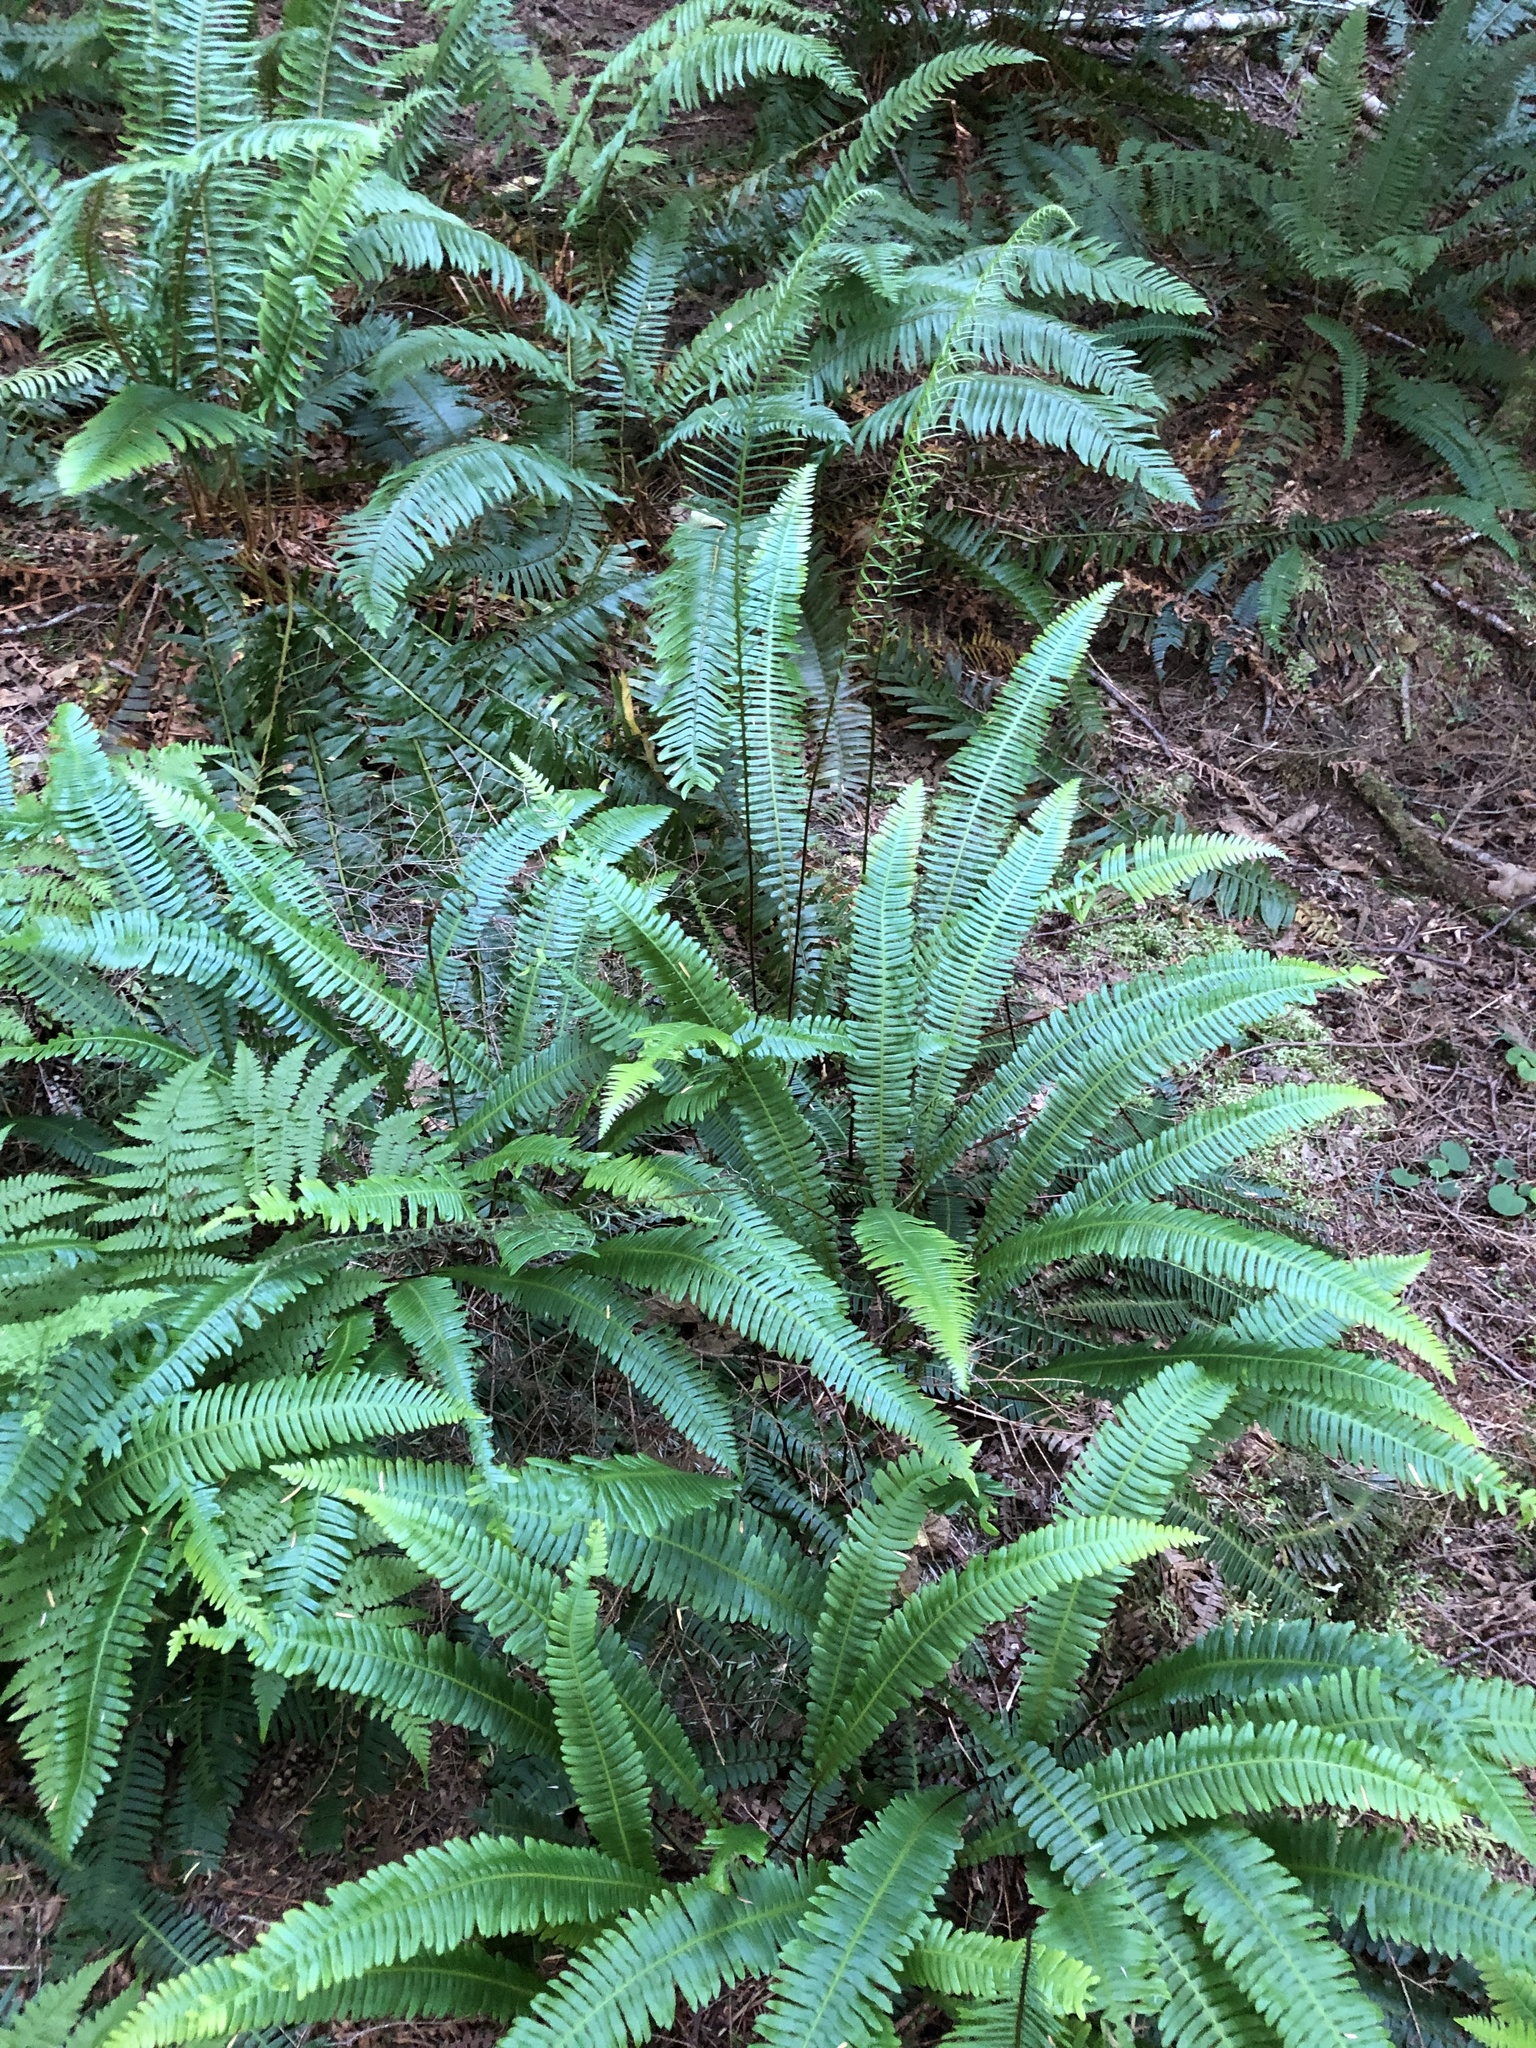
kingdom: Plantae
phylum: Tracheophyta
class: Polypodiopsida
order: Polypodiales
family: Blechnaceae
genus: Struthiopteris
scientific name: Struthiopteris spicant
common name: Deer fern
